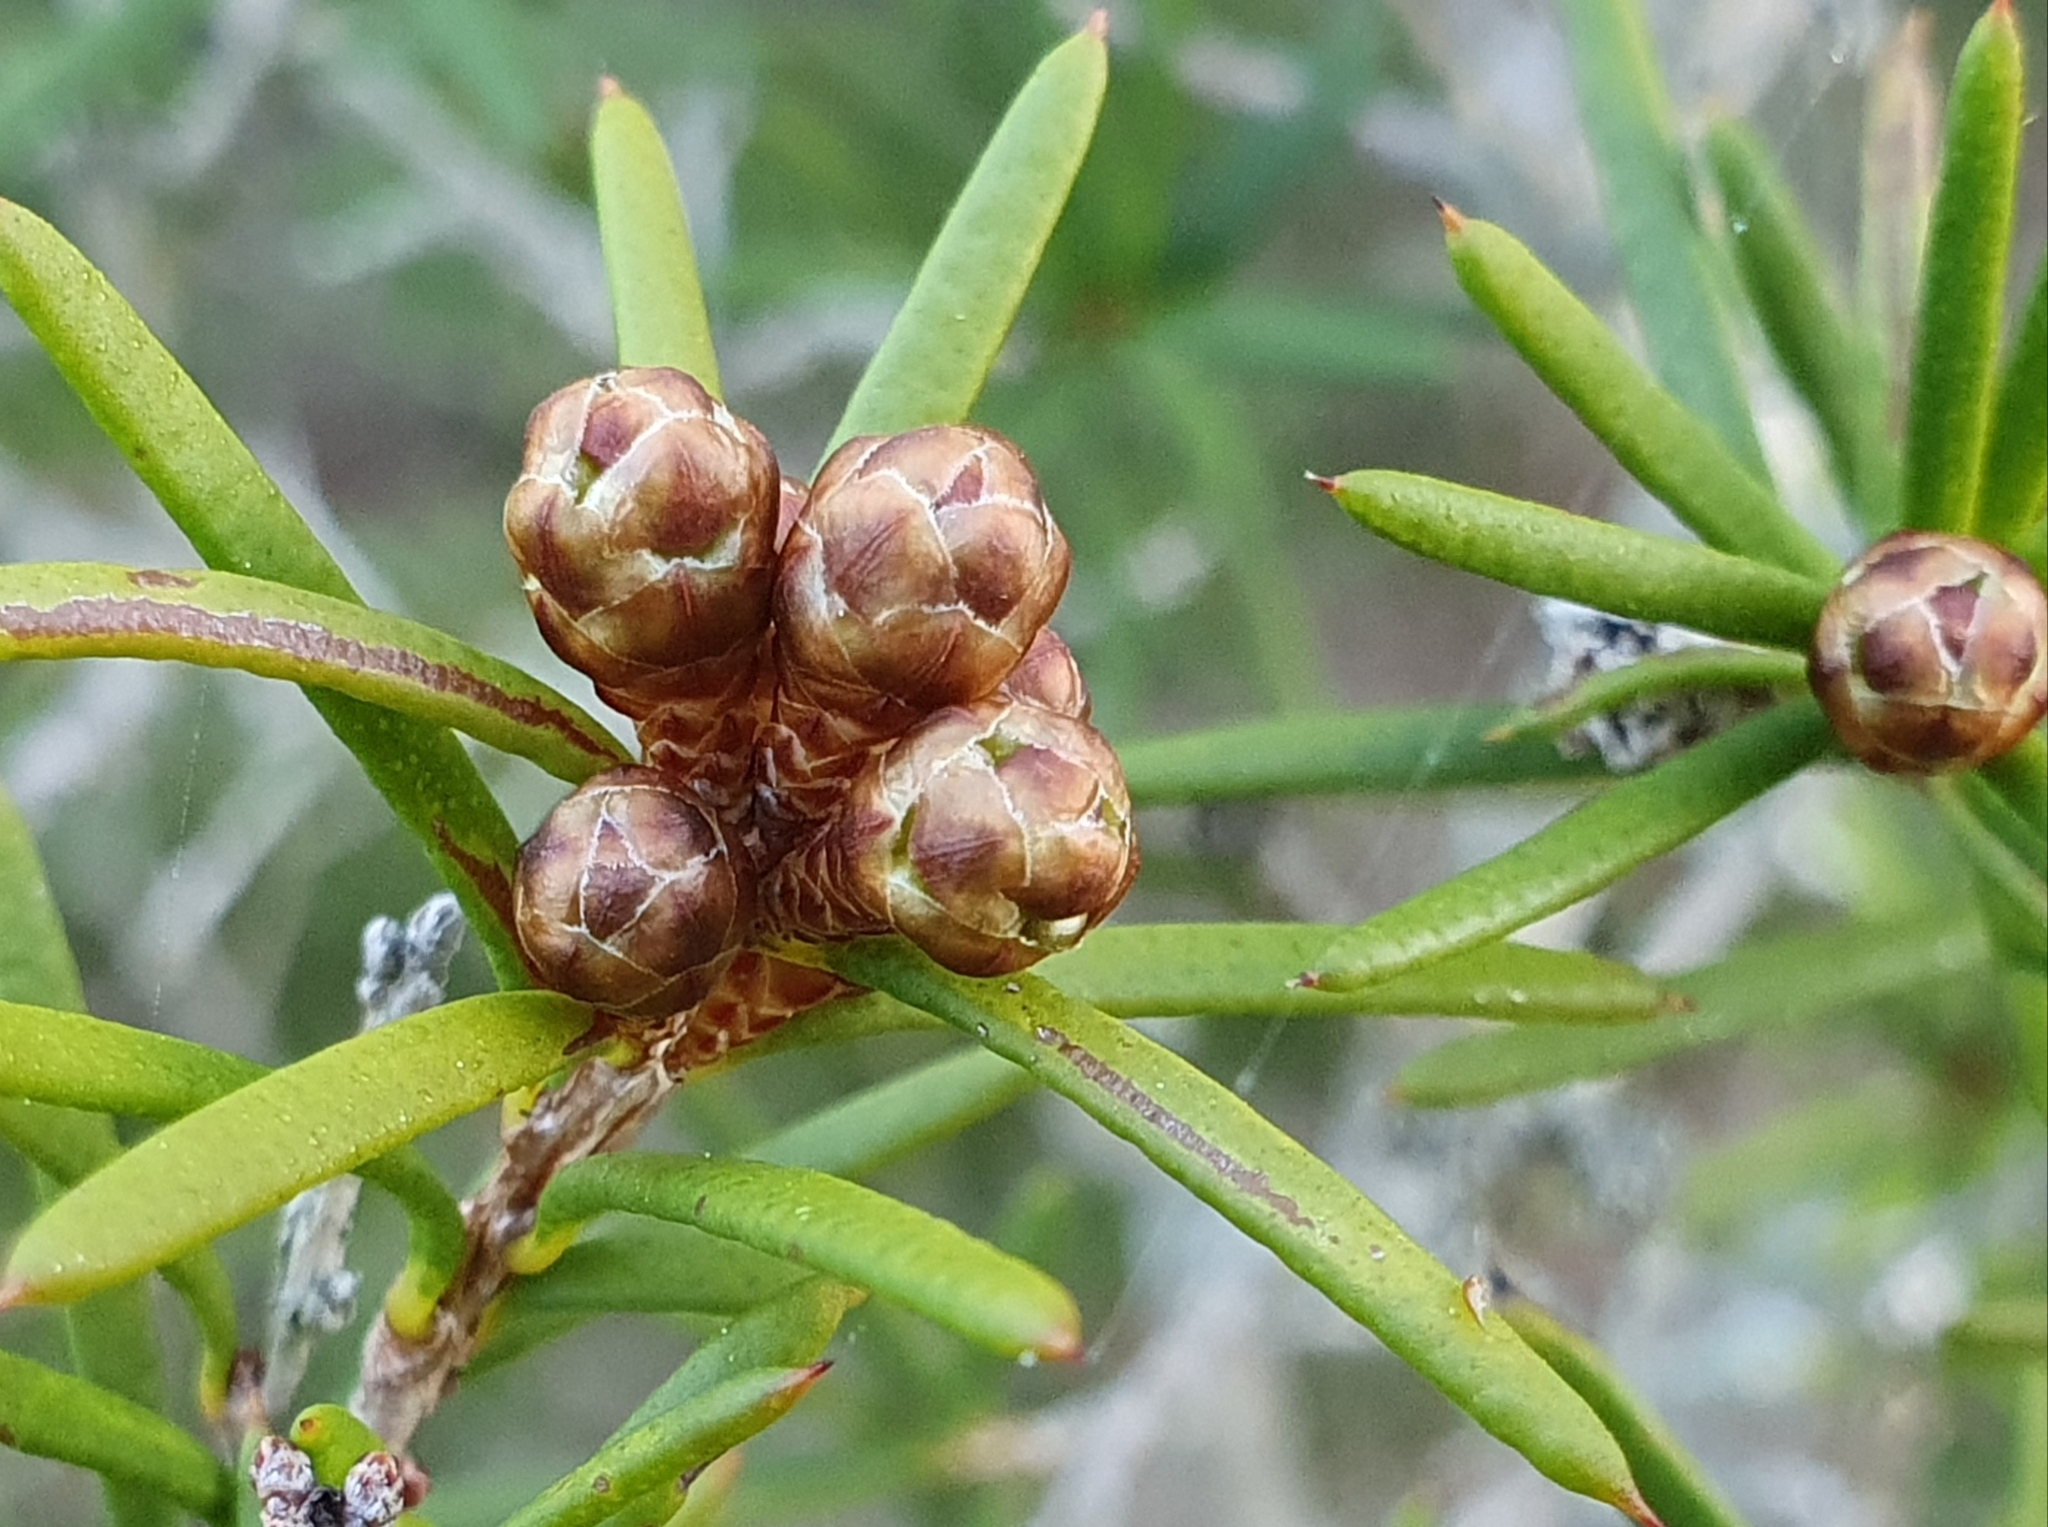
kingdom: Plantae
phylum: Tracheophyta
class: Magnoliopsida
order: Myrtales
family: Myrtaceae
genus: Melaleuca
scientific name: Melaleuca nodosa
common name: Prickly-leaf paperbark
